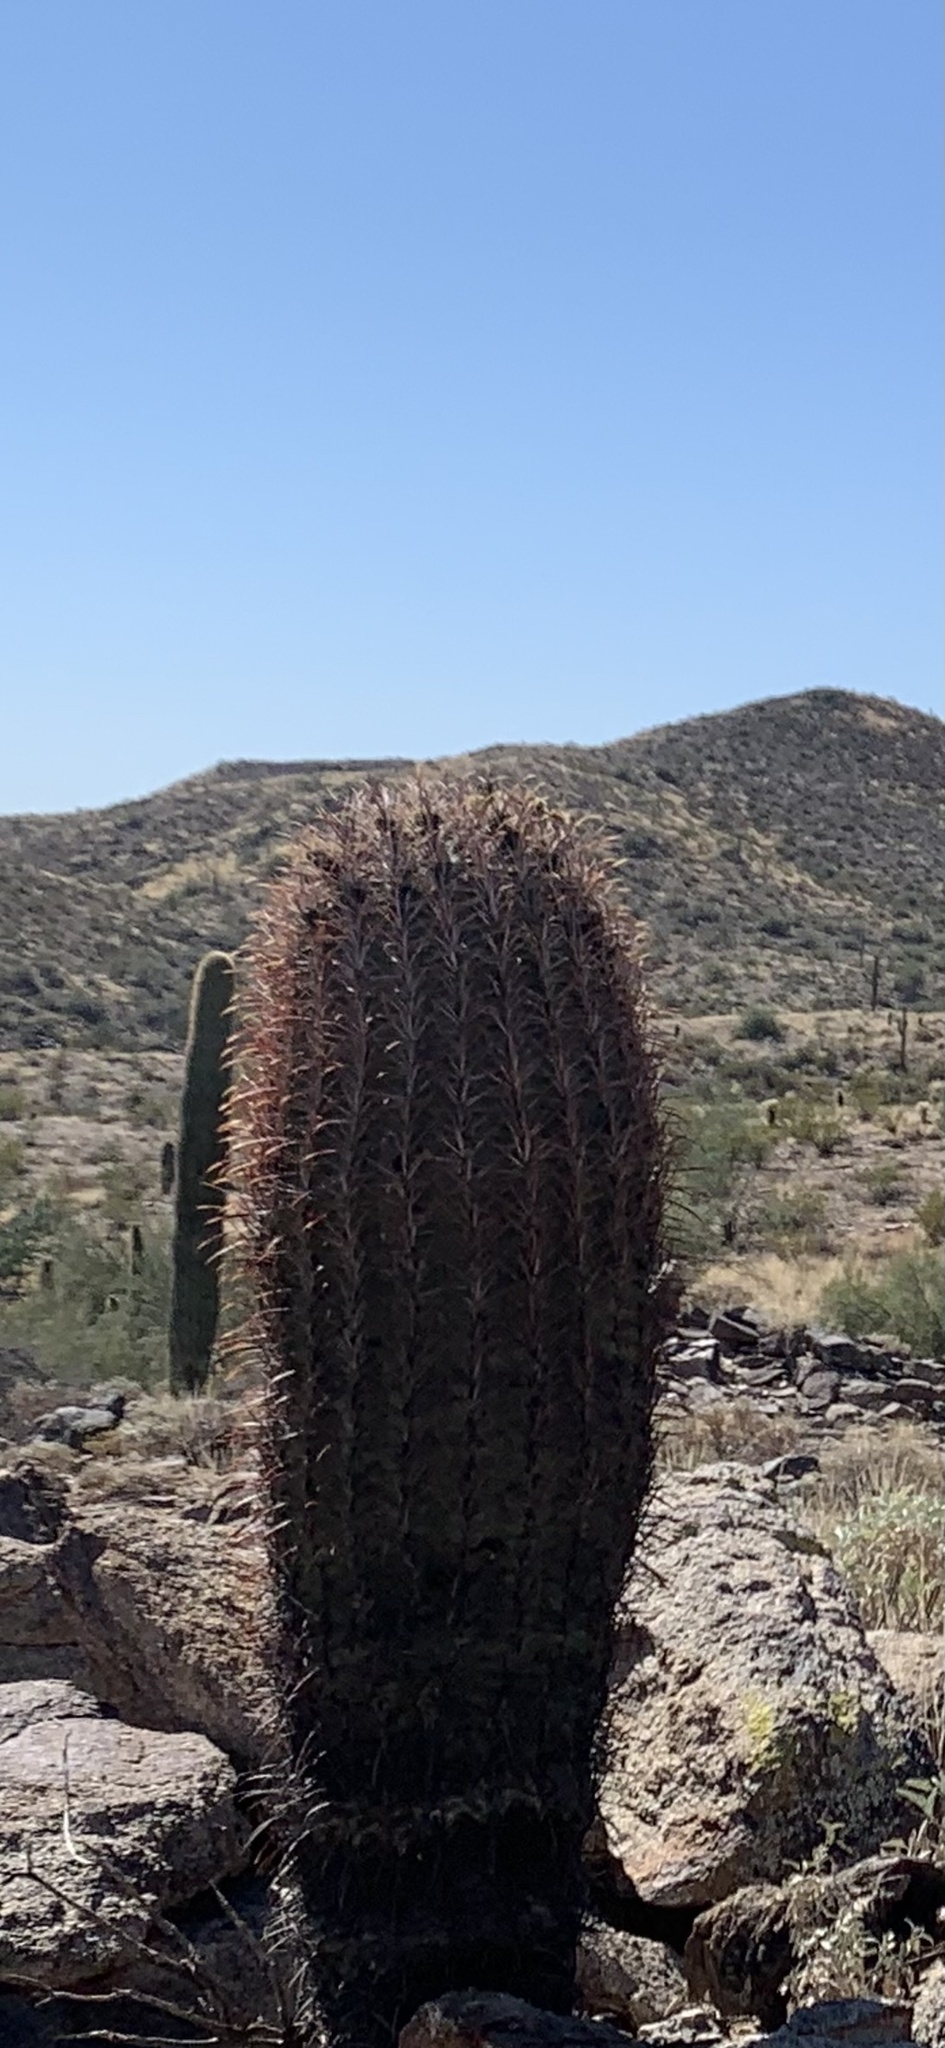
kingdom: Plantae
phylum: Tracheophyta
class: Magnoliopsida
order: Caryophyllales
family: Cactaceae
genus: Ferocactus
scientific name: Ferocactus cylindraceus
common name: California barrel cactus
